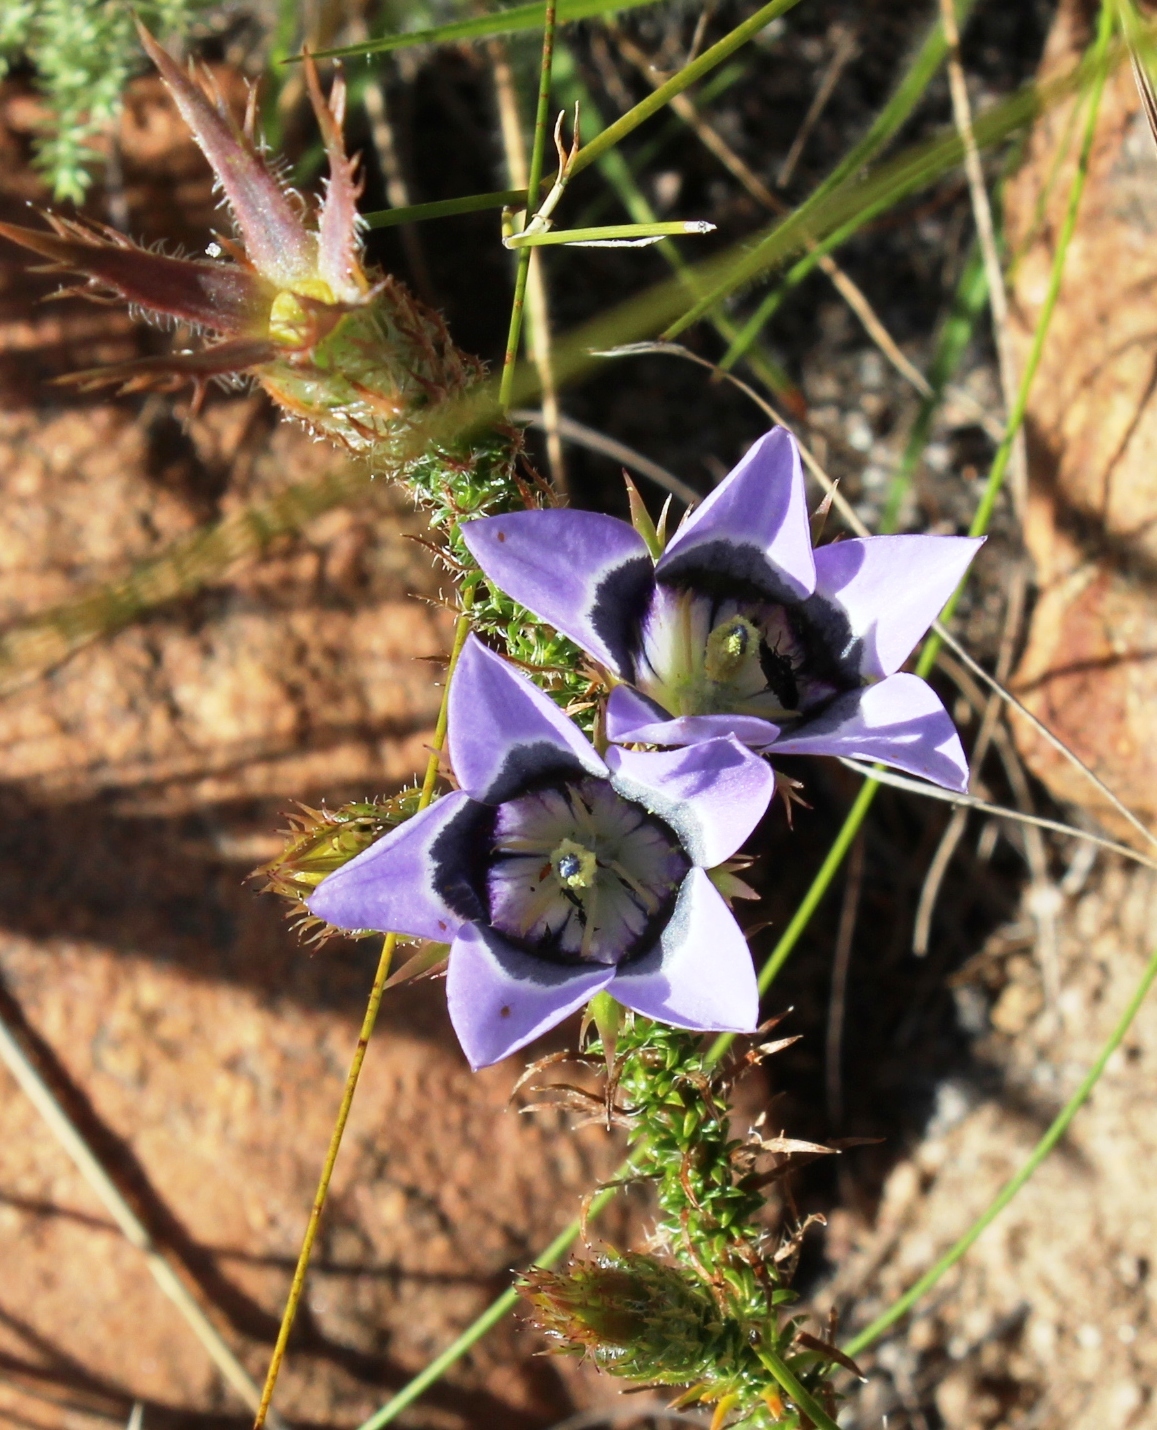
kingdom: Plantae
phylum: Tracheophyta
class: Magnoliopsida
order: Asterales
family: Campanulaceae
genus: Roella
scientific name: Roella incurva
